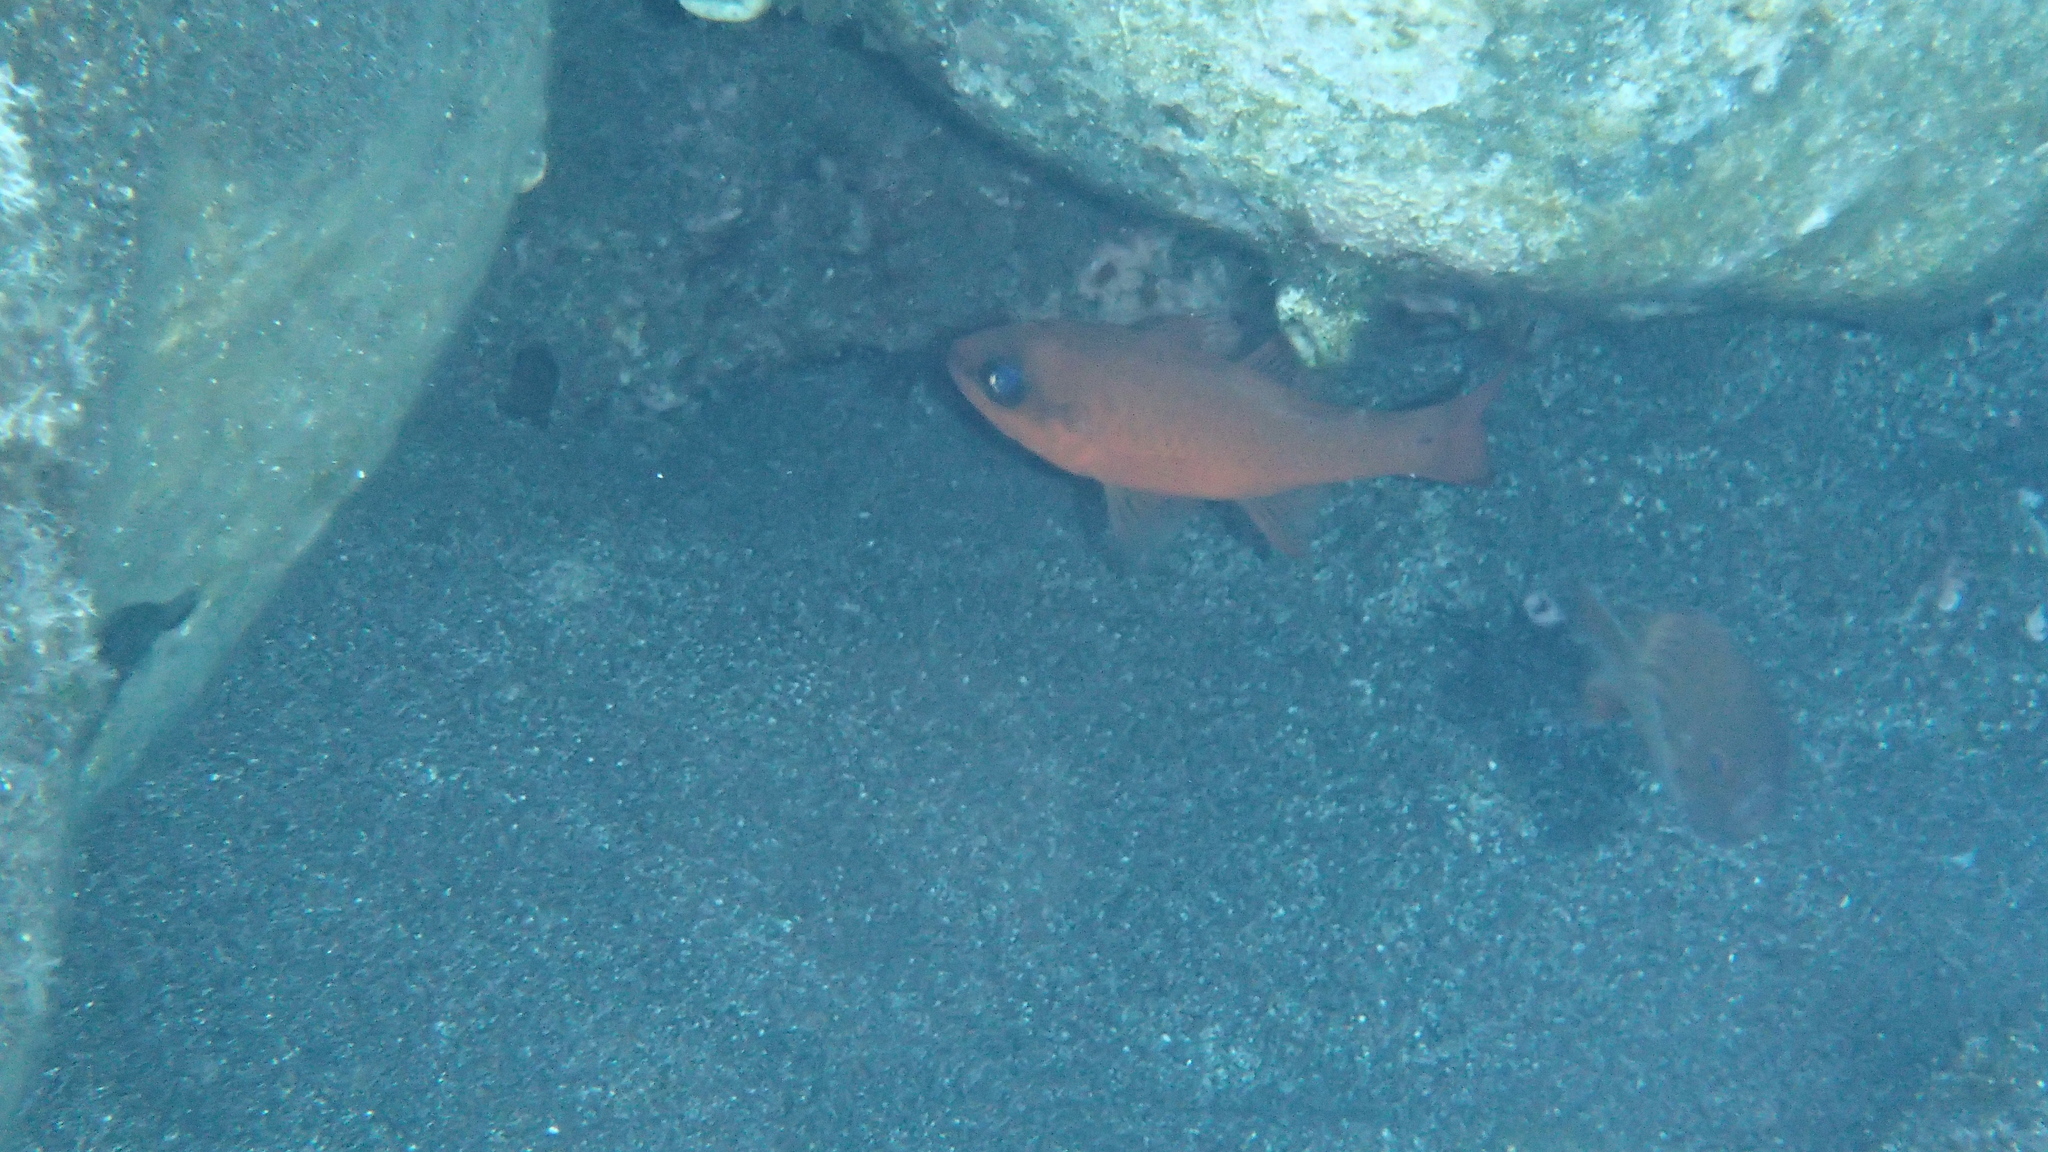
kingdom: Animalia
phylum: Chordata
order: Perciformes
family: Apogonidae
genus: Apogon
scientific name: Apogon imberbis
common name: Cardinal fish
